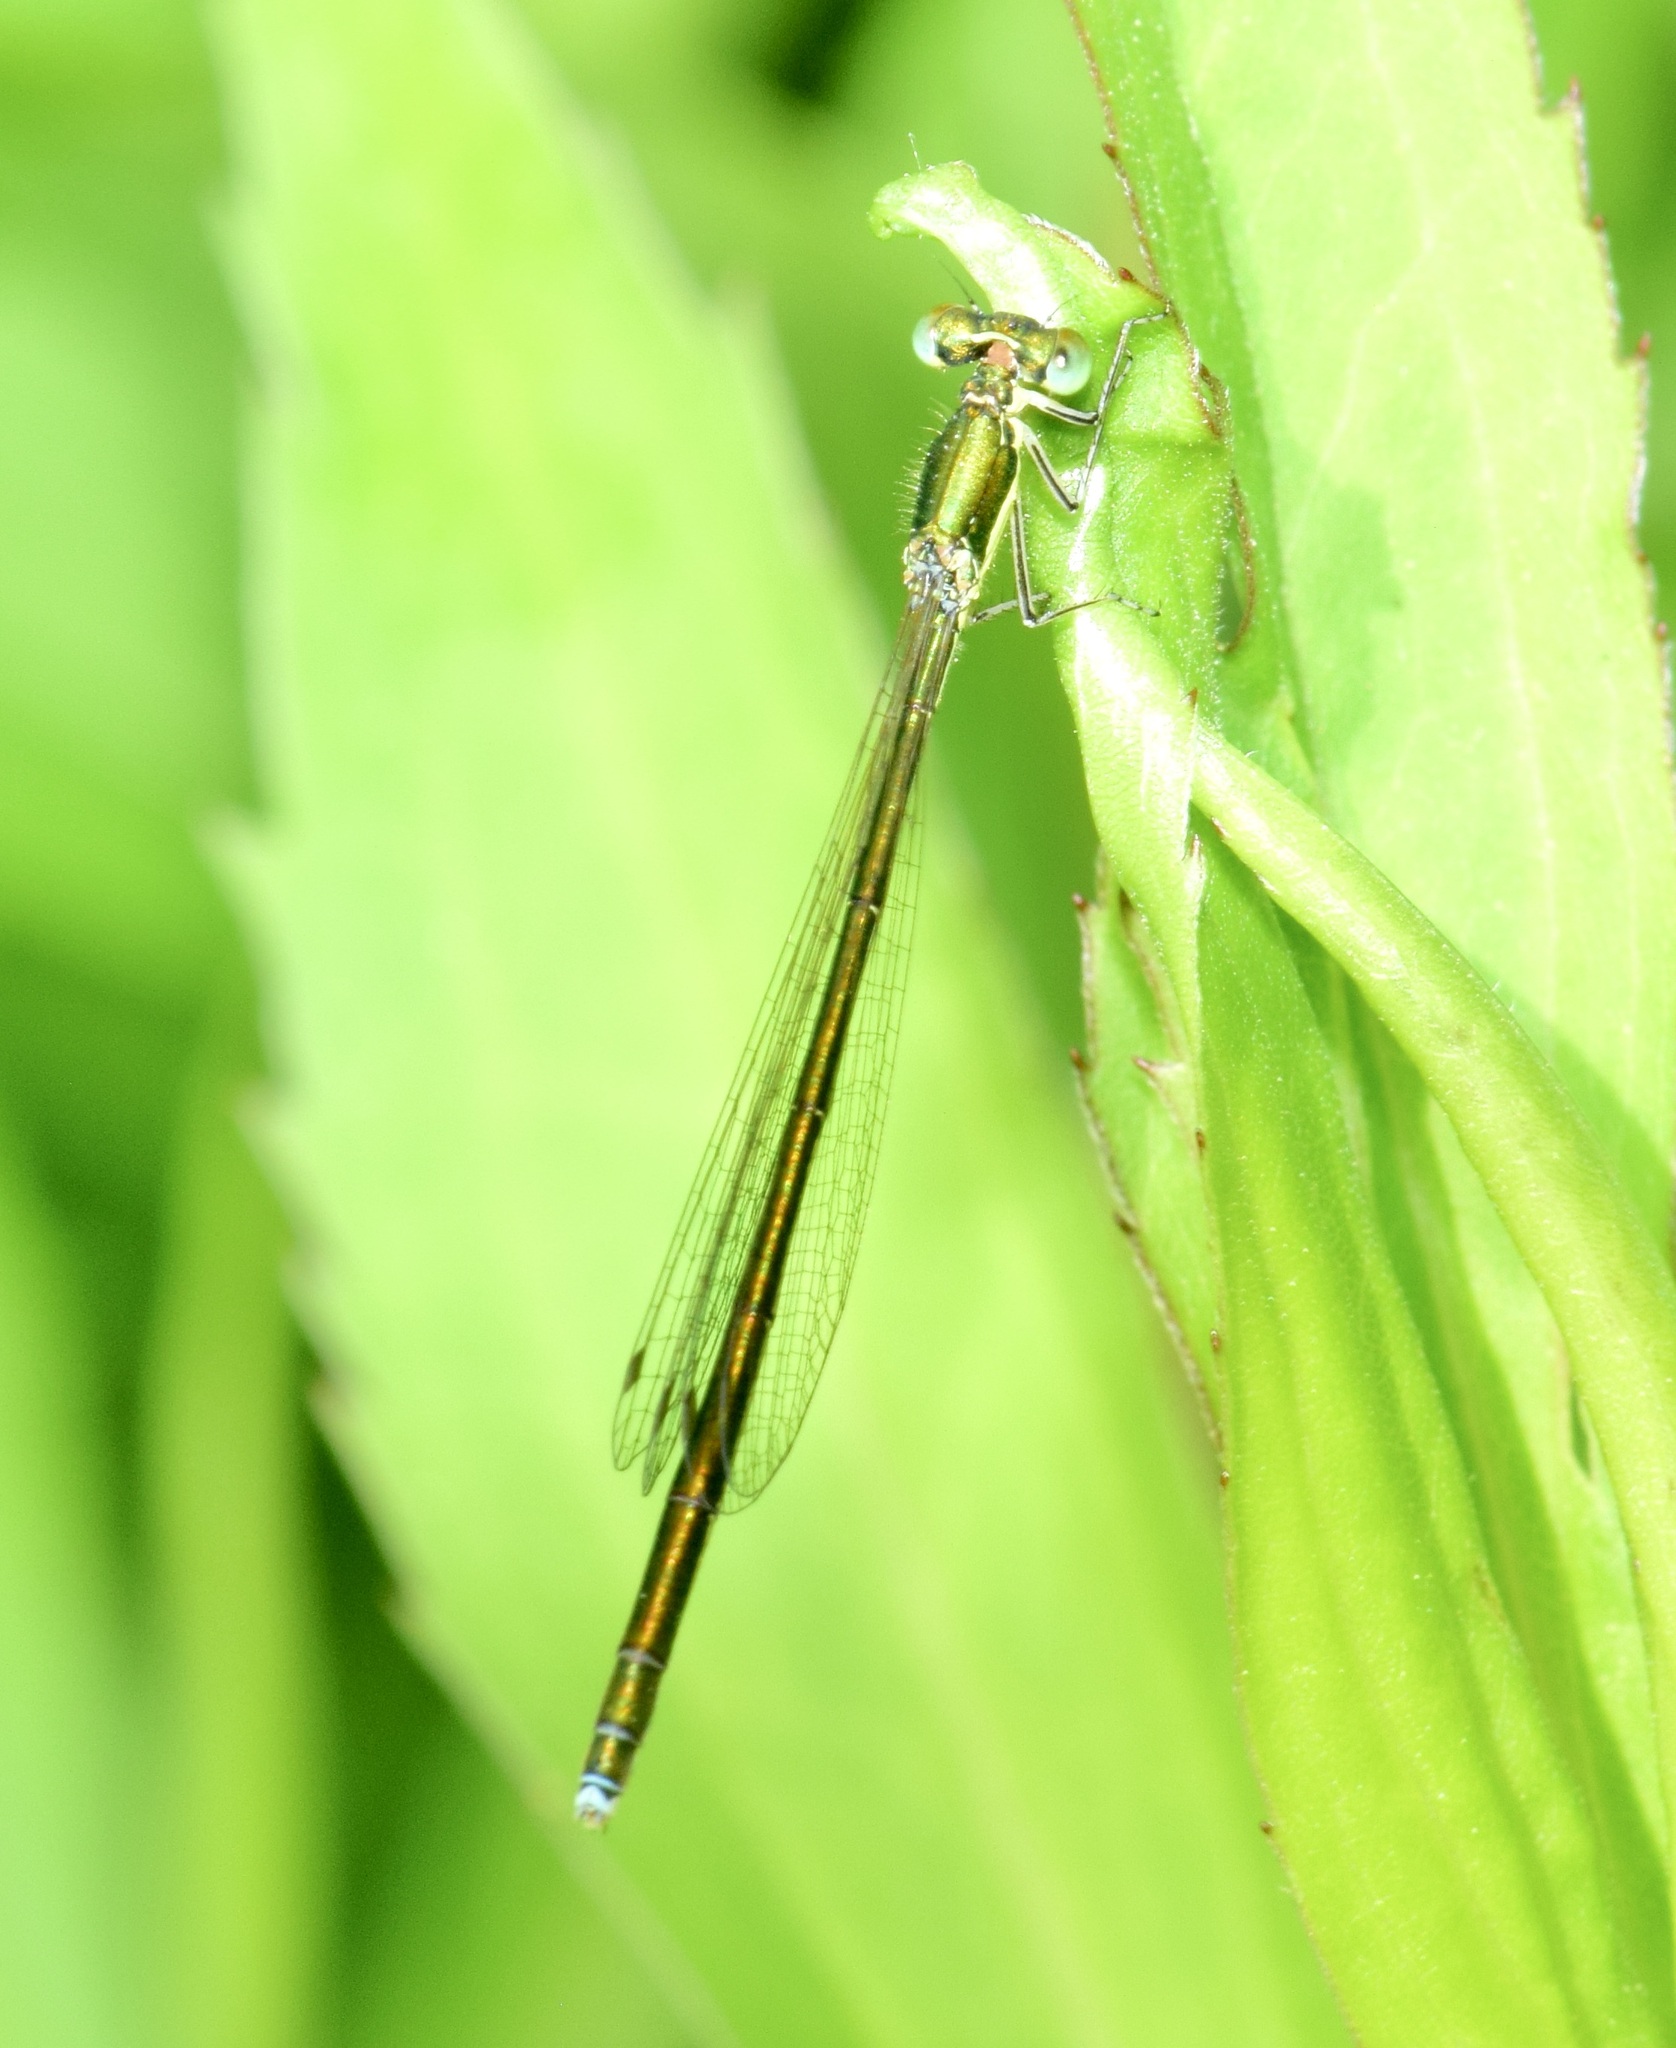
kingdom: Animalia
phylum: Arthropoda
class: Insecta
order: Odonata
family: Coenagrionidae
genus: Nehalennia
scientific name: Nehalennia irene
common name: Sedge sprite
